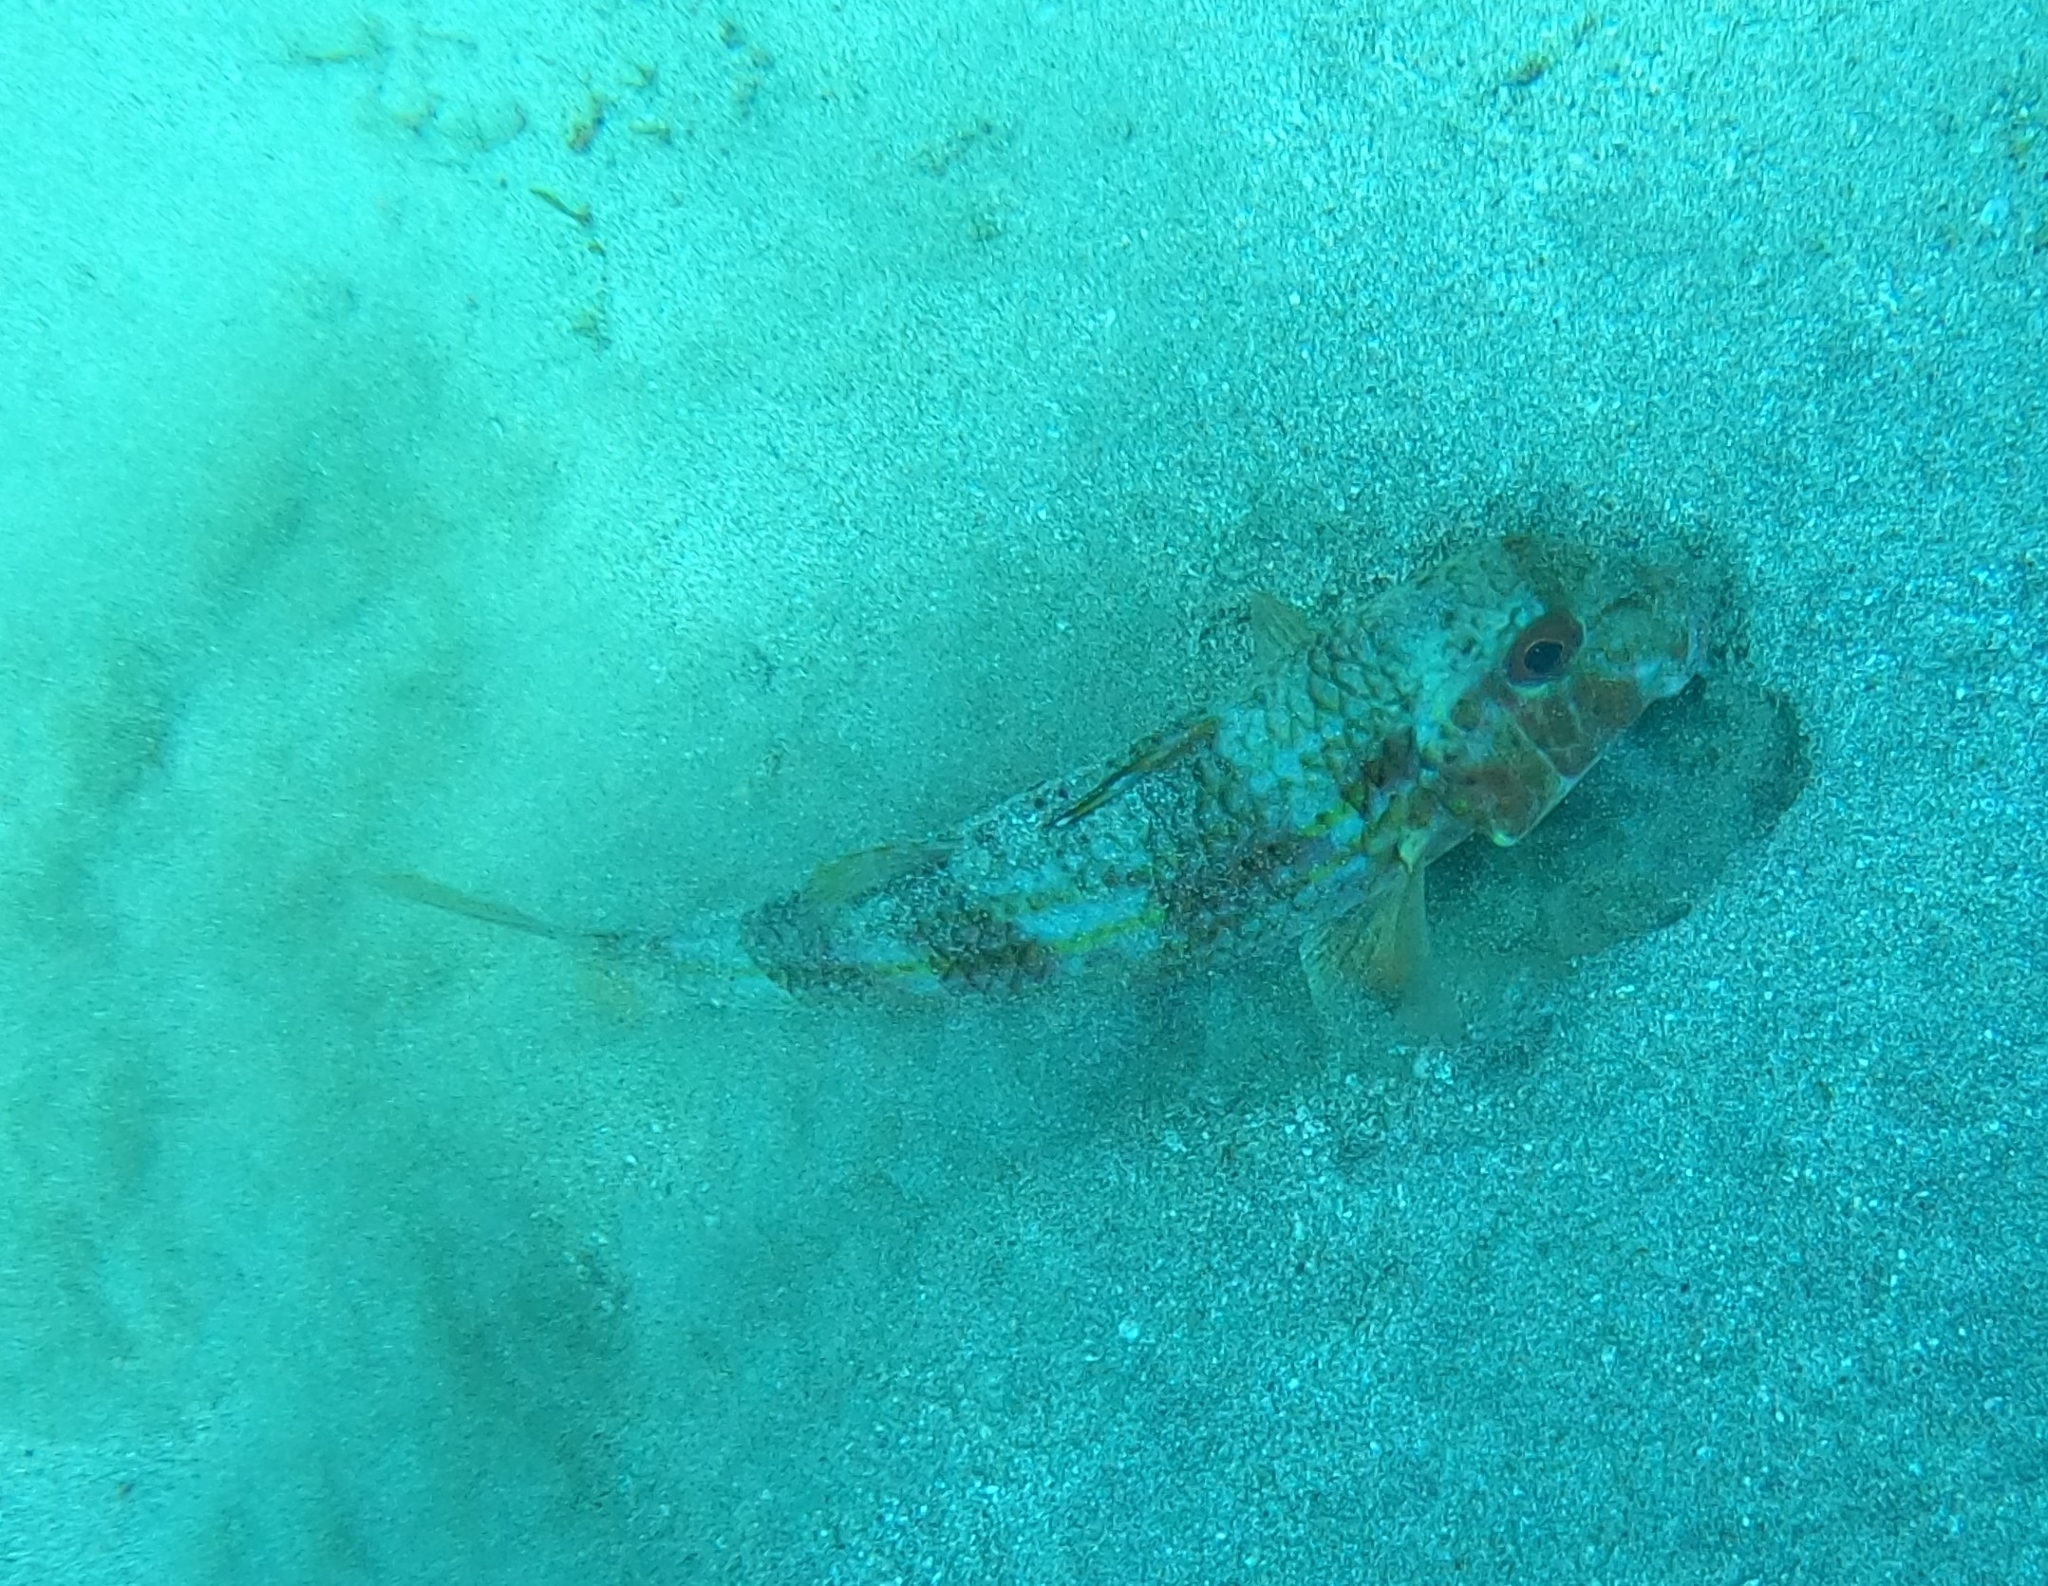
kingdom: Animalia
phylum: Chordata
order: Perciformes
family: Mullidae
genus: Mullus
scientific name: Mullus surmuletus
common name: Red mullet
